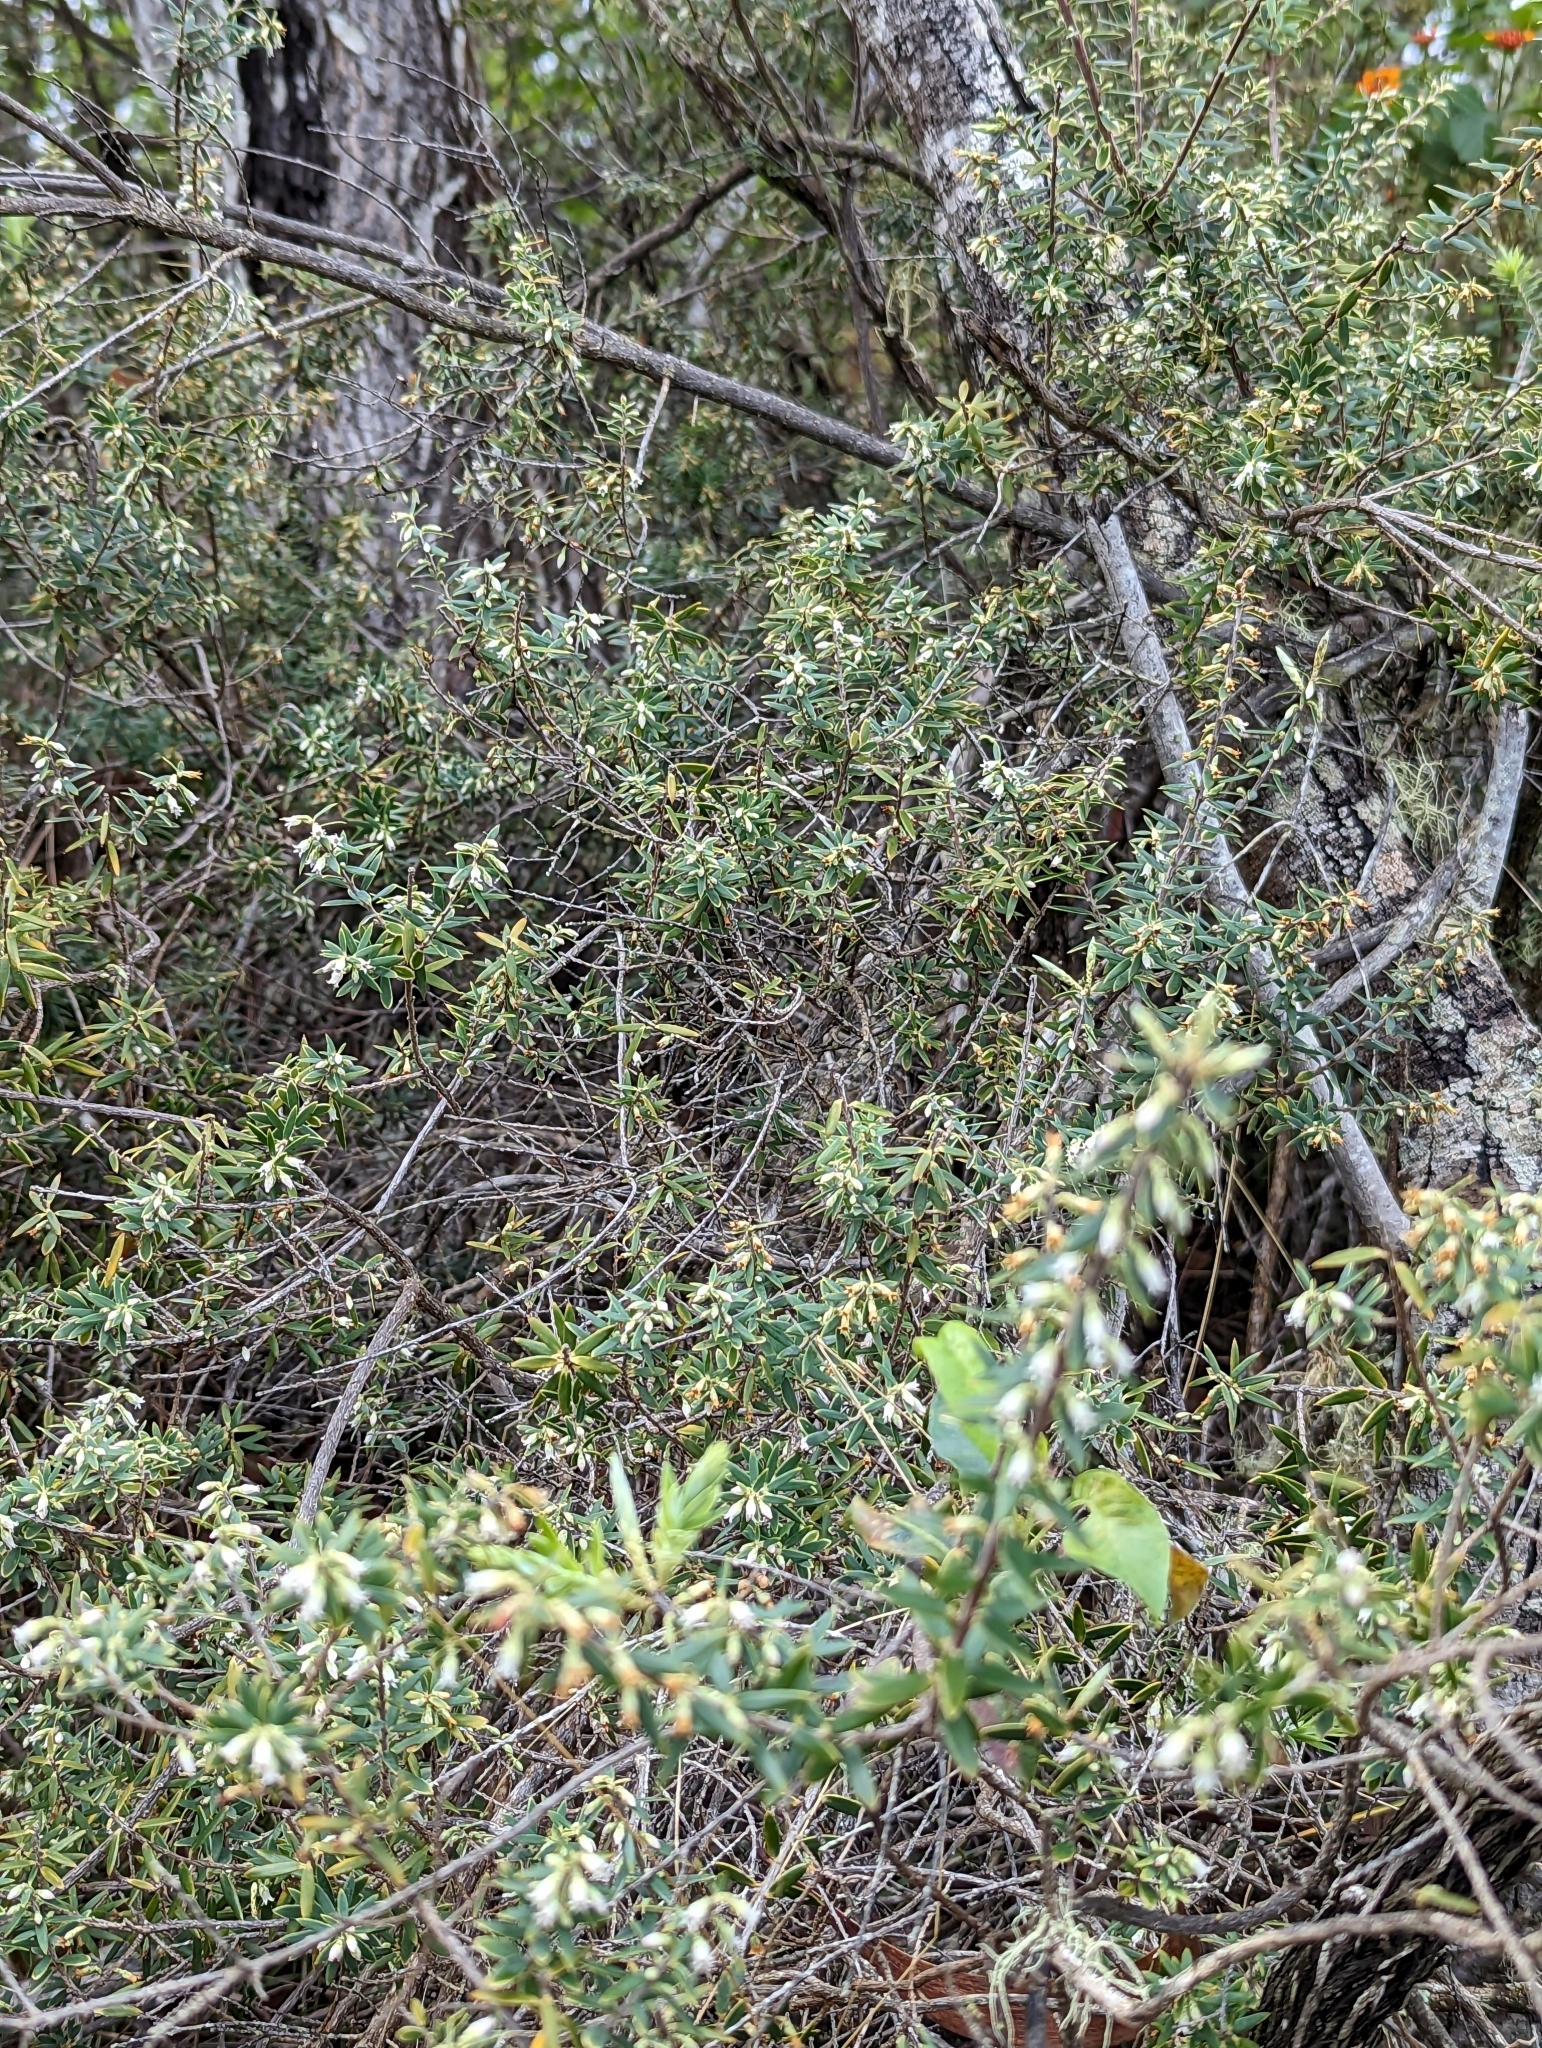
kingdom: Plantae
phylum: Tracheophyta
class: Magnoliopsida
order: Ericales
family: Ericaceae
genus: Leptecophylla
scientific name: Leptecophylla tameiameiae
